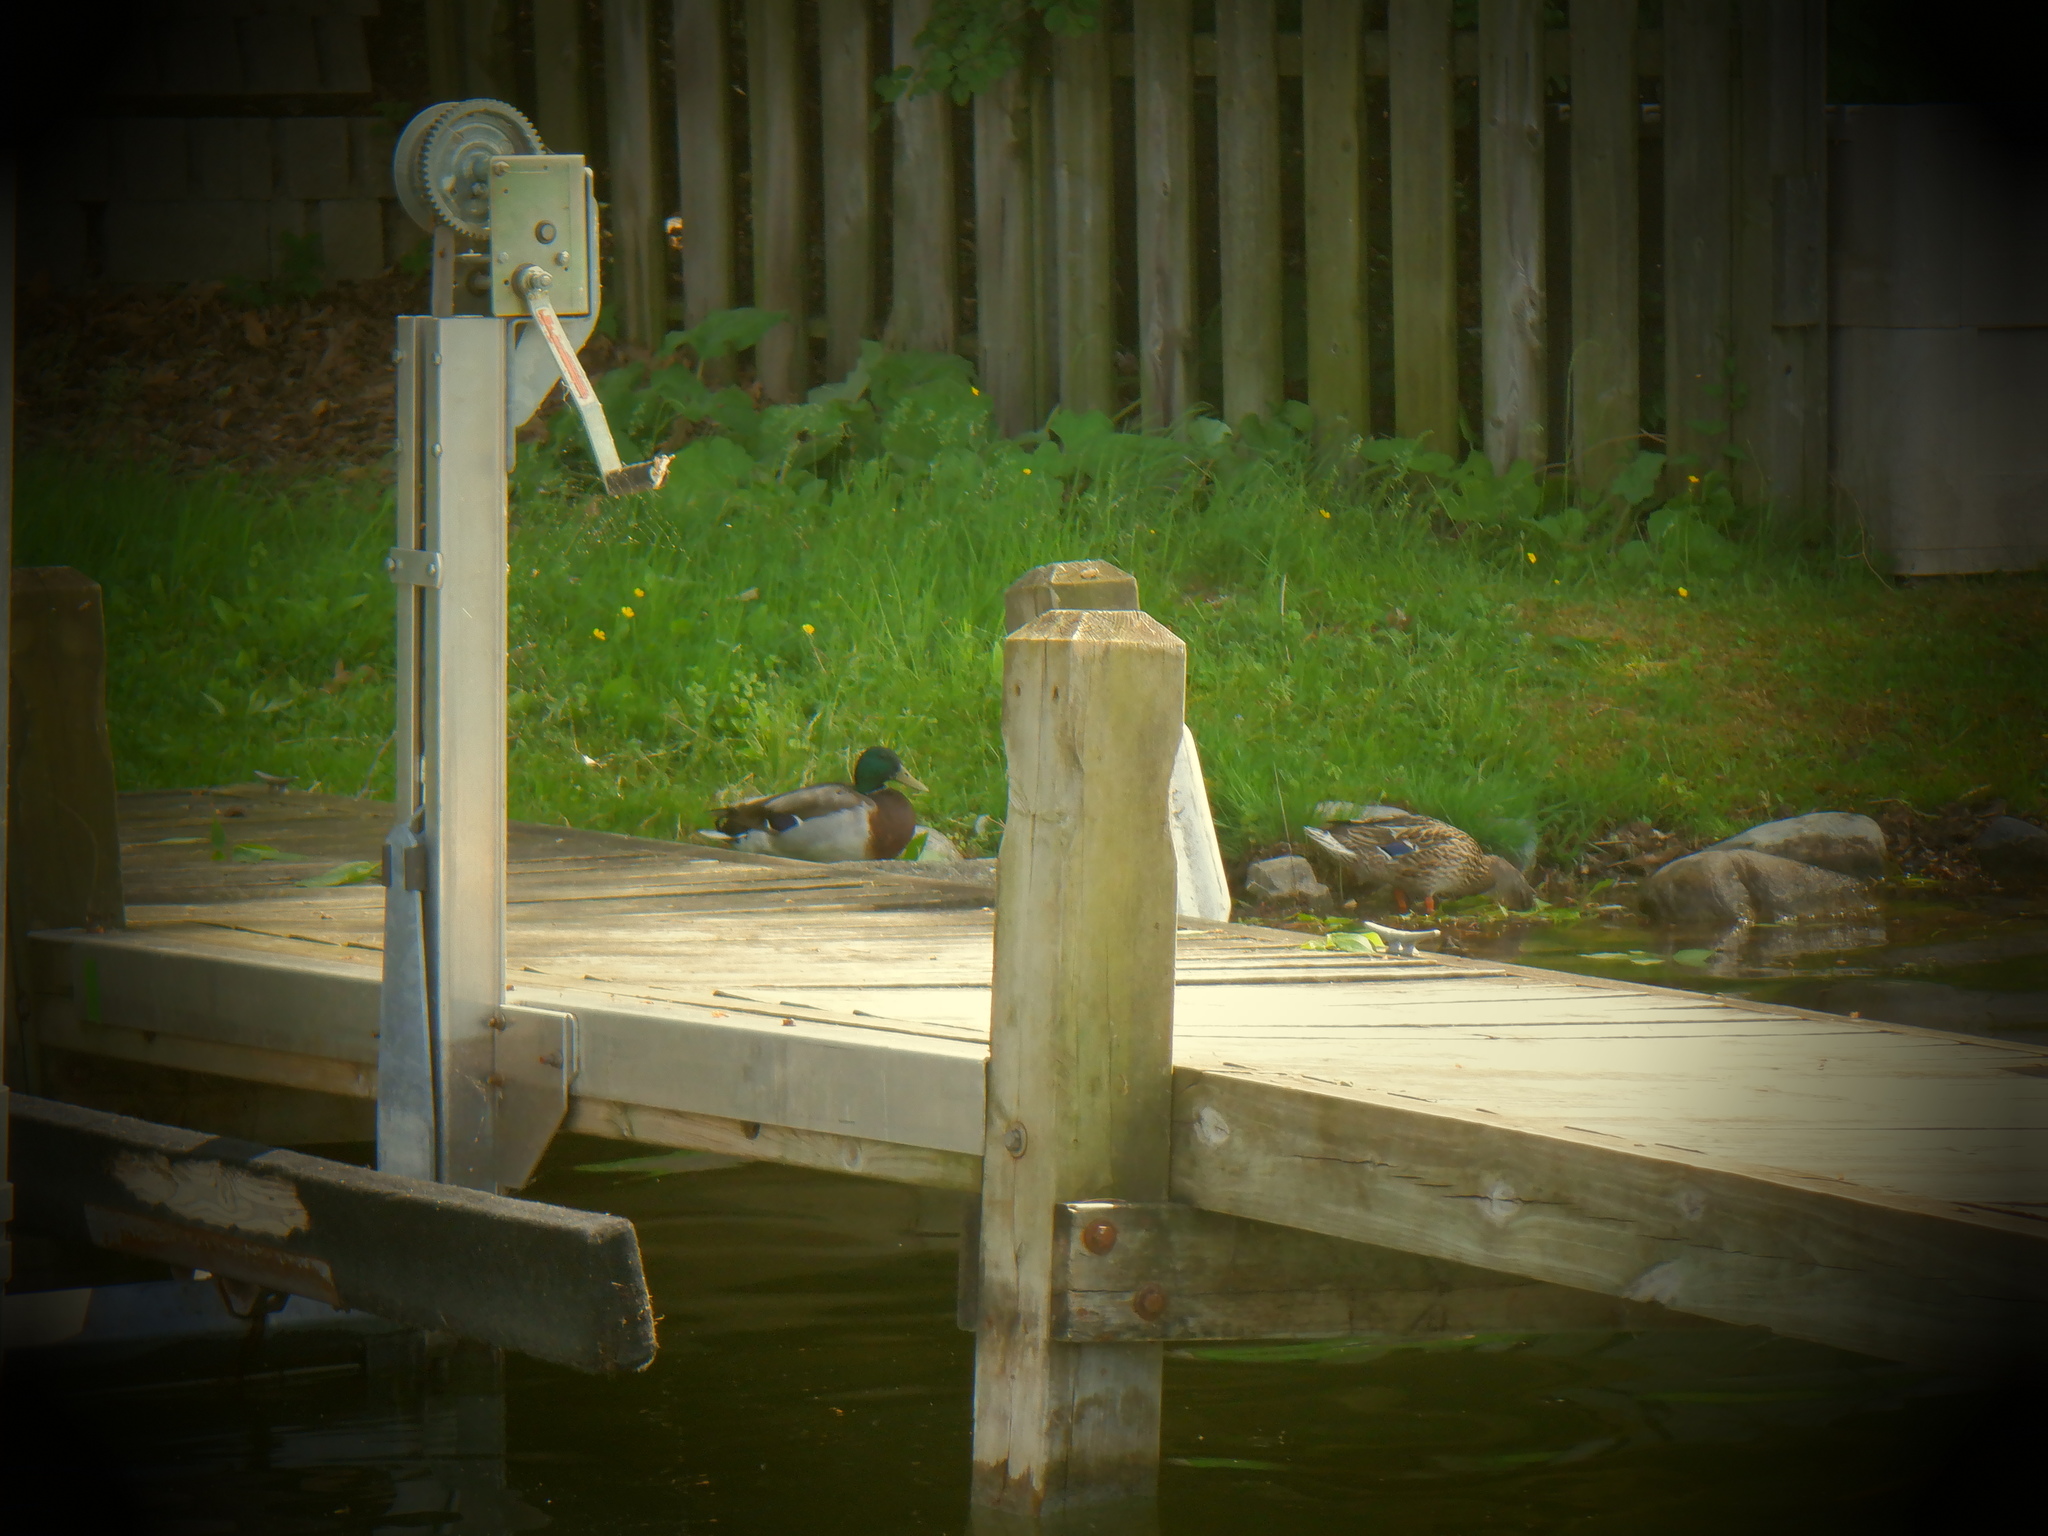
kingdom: Animalia
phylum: Chordata
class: Aves
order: Anseriformes
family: Anatidae
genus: Anas
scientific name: Anas platyrhynchos
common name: Mallard
